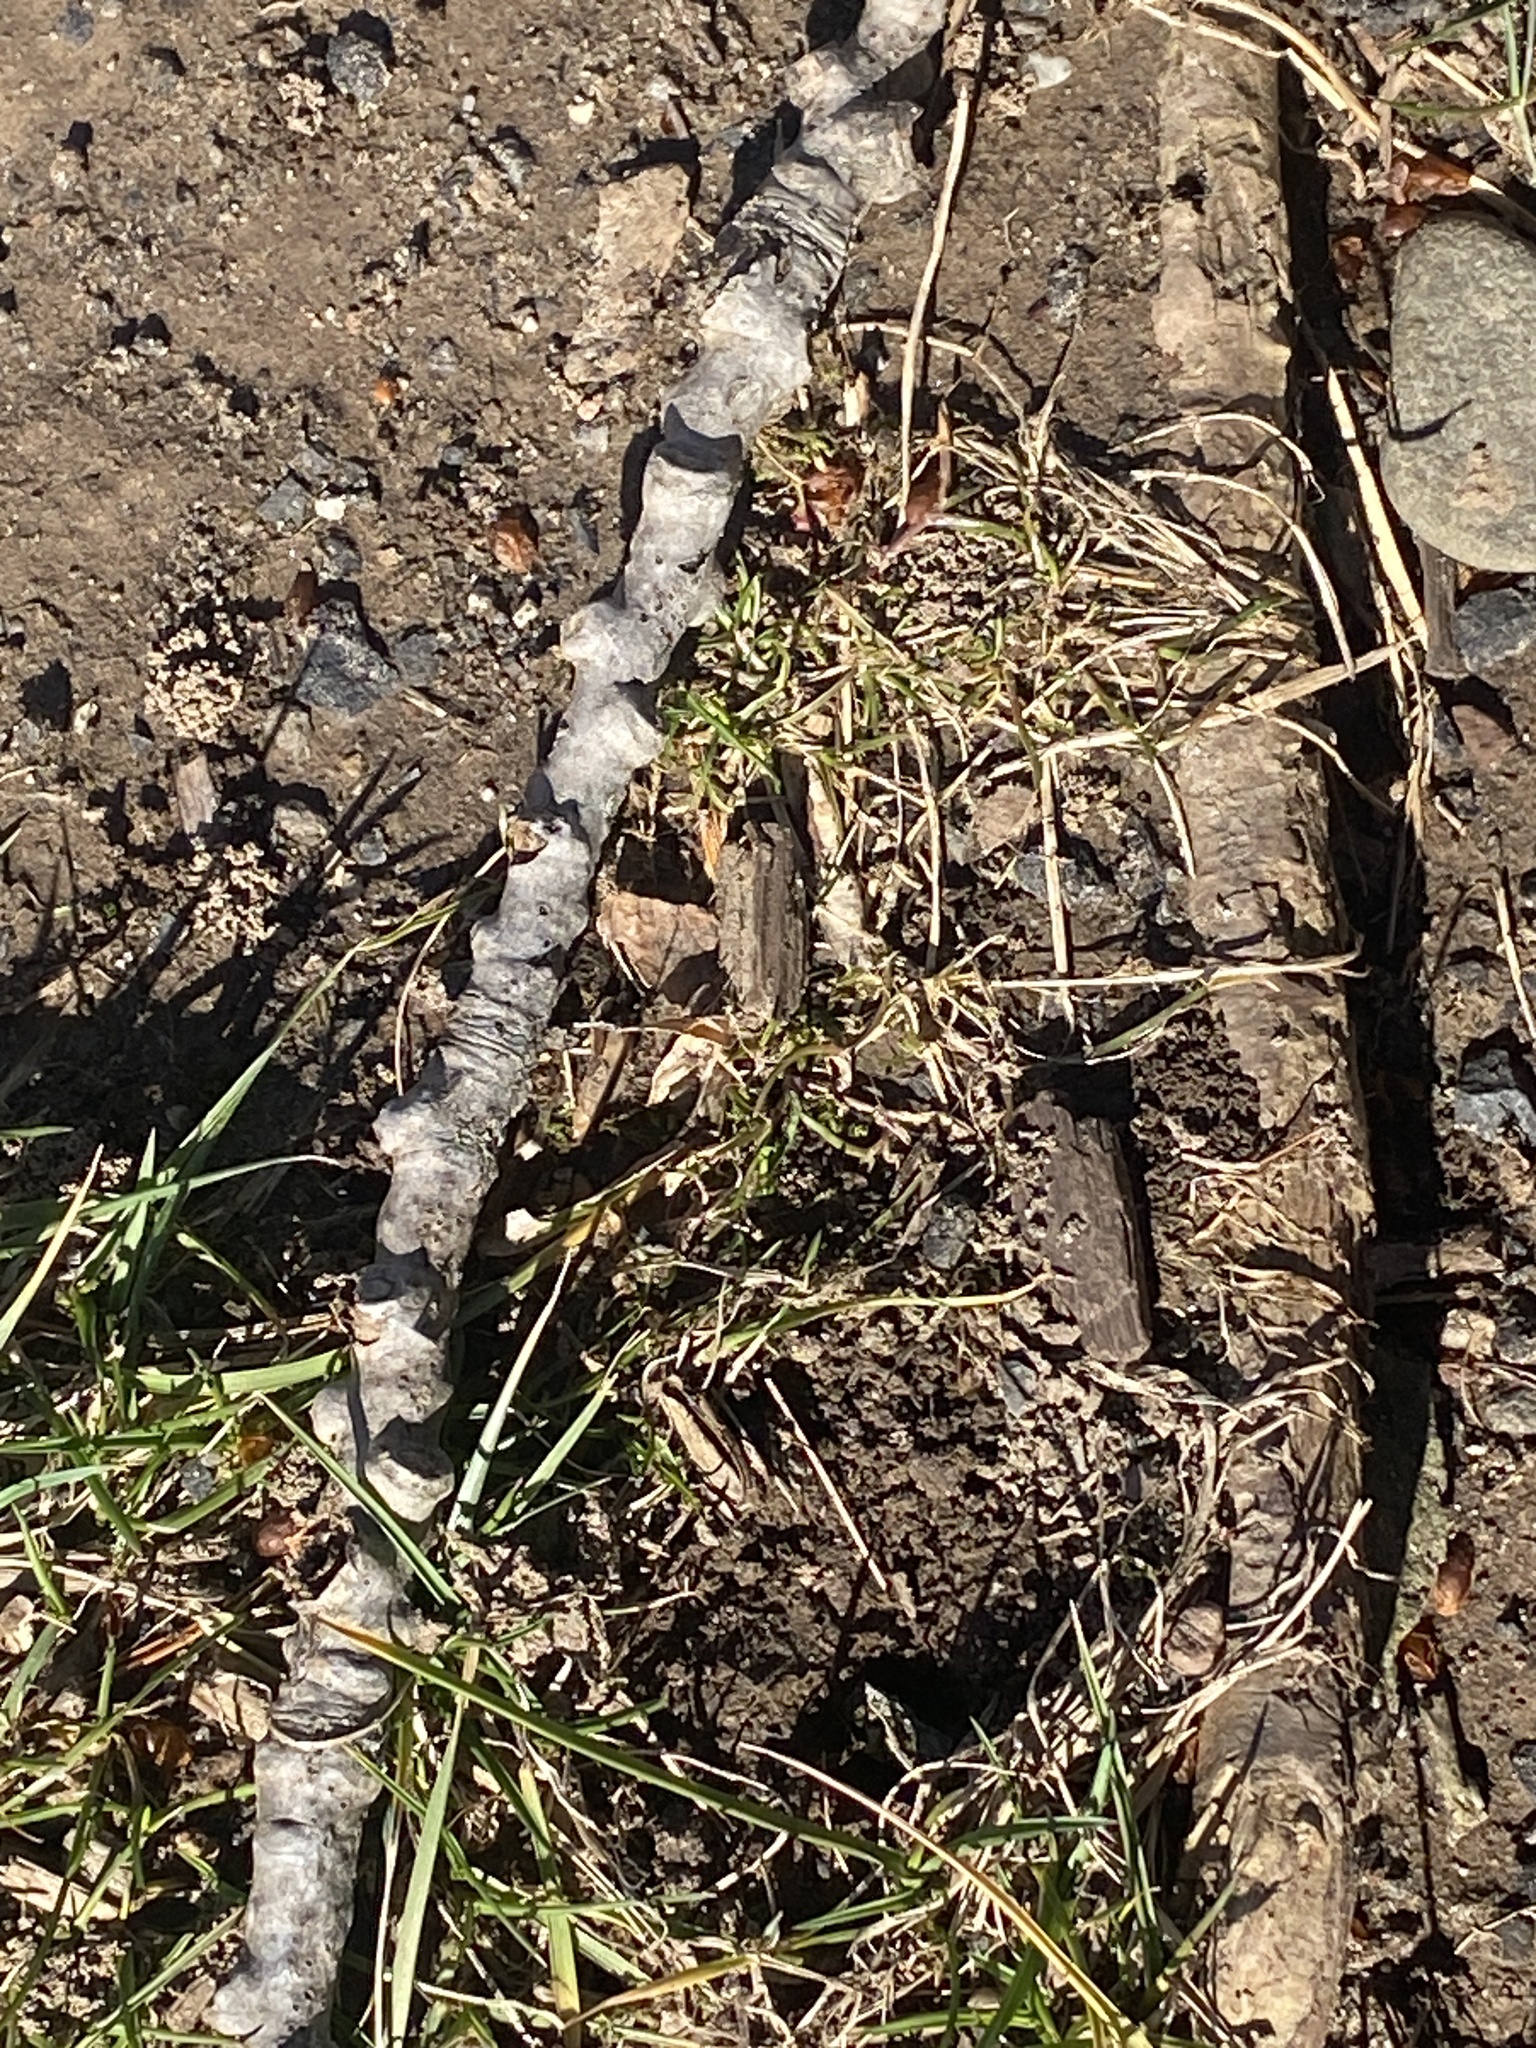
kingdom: Plantae
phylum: Tracheophyta
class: Magnoliopsida
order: Malpighiales
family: Salicaceae
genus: Populus
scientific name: Populus deltoides
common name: Eastern cottonwood
